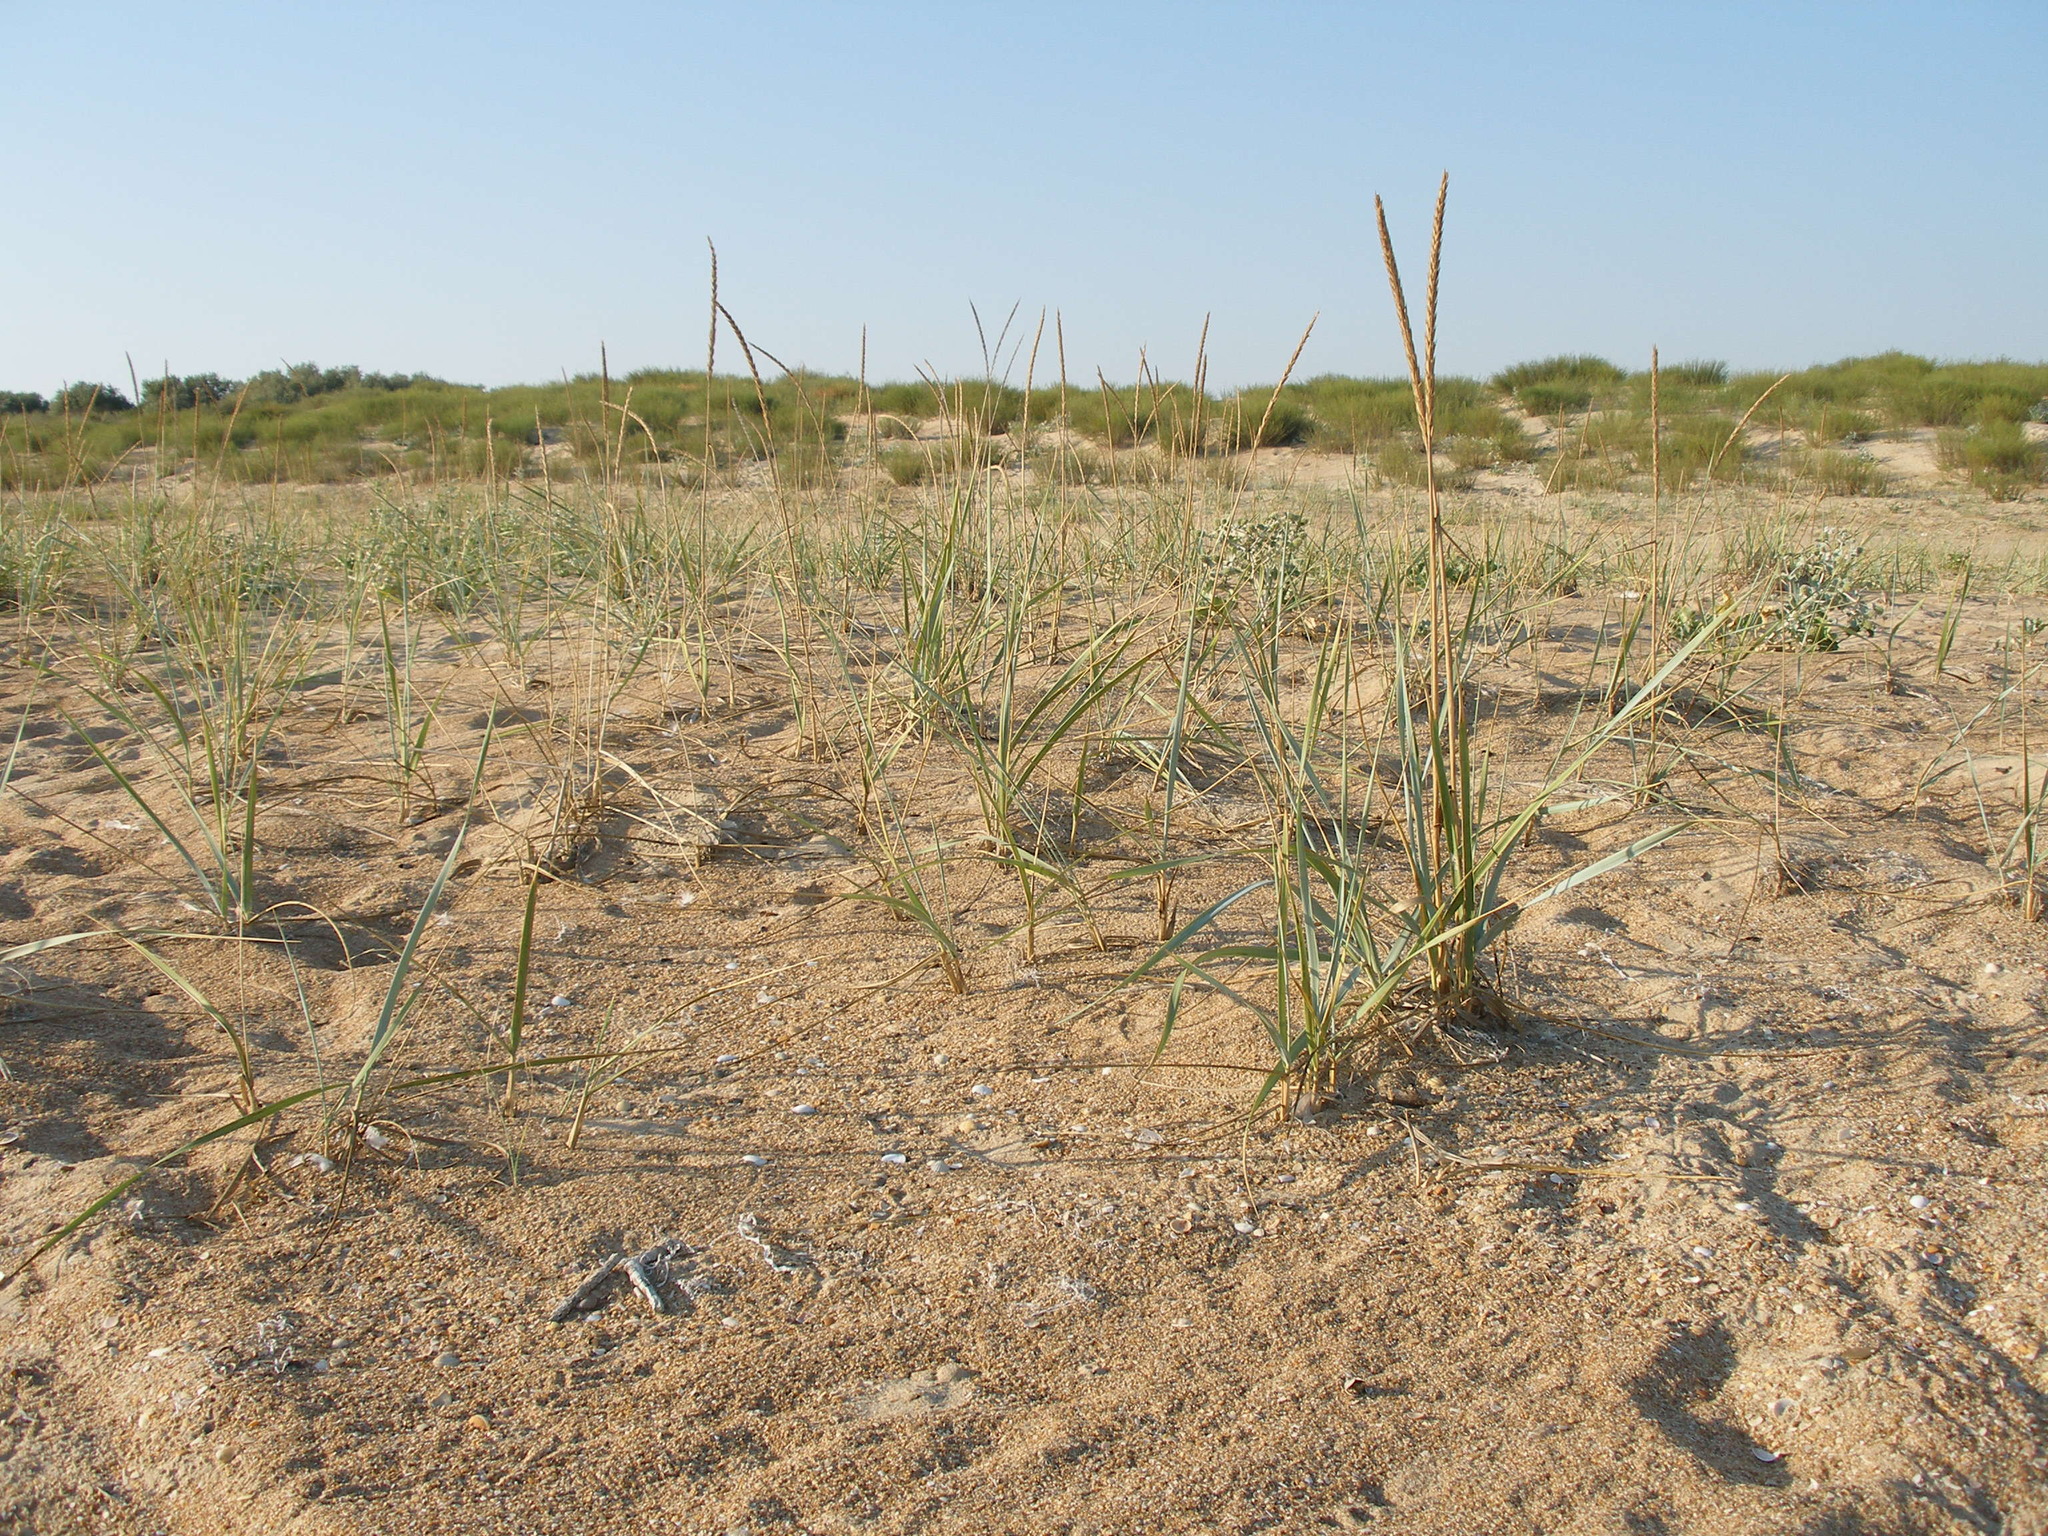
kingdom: Plantae
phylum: Tracheophyta
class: Liliopsida
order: Poales
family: Poaceae
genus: Leymus
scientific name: Leymus racemosus
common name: Mammoth wildrye
